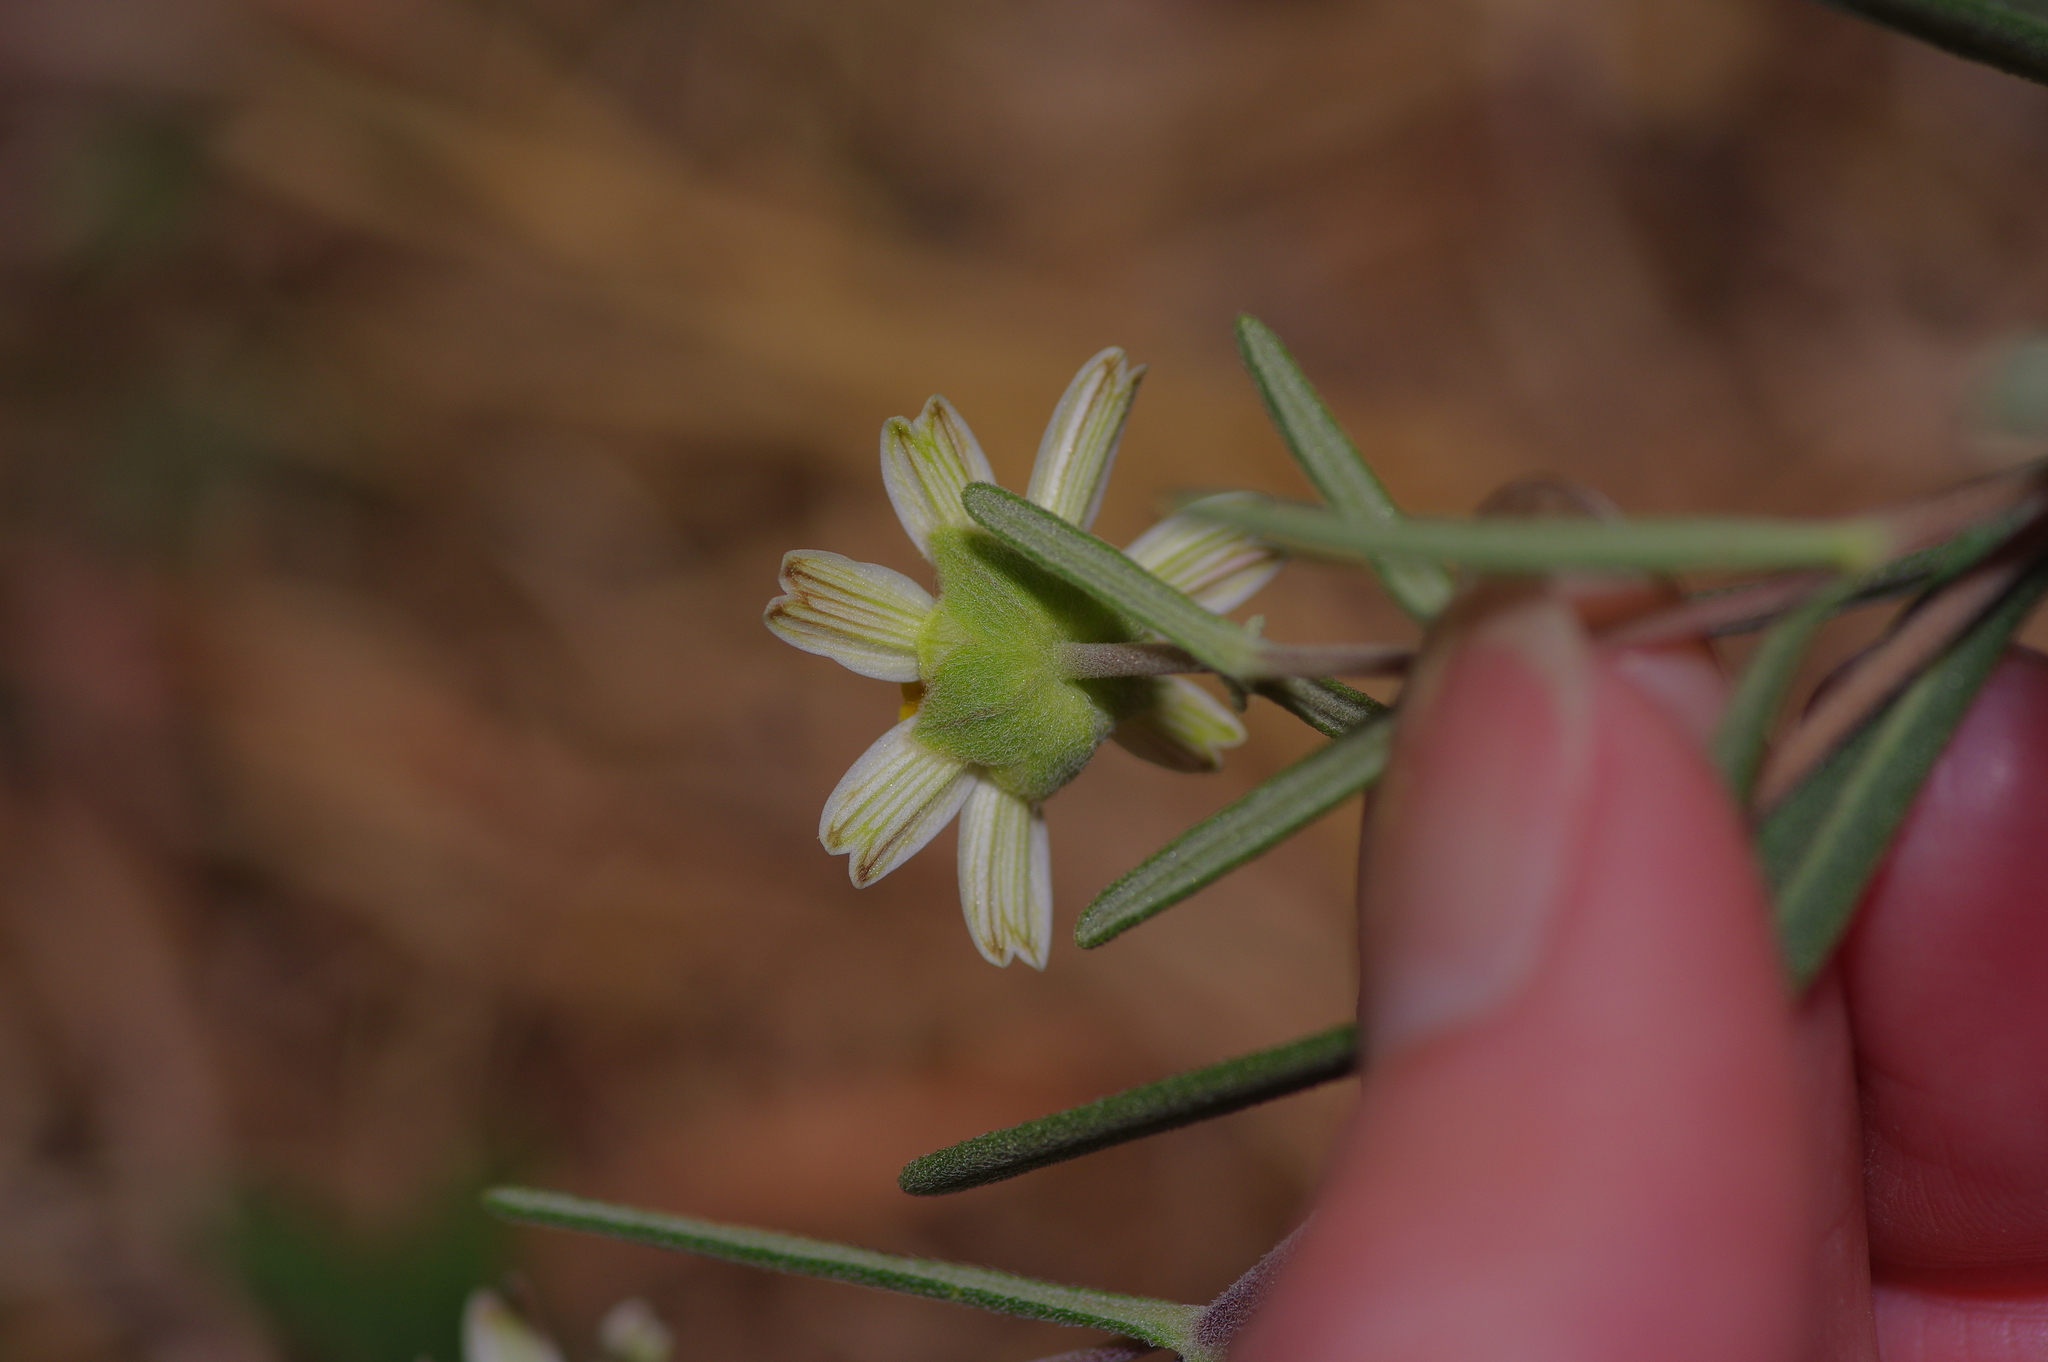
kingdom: Plantae
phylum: Tracheophyta
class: Magnoliopsida
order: Asterales
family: Asteraceae
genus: Melampodium
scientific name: Melampodium leucanthum
